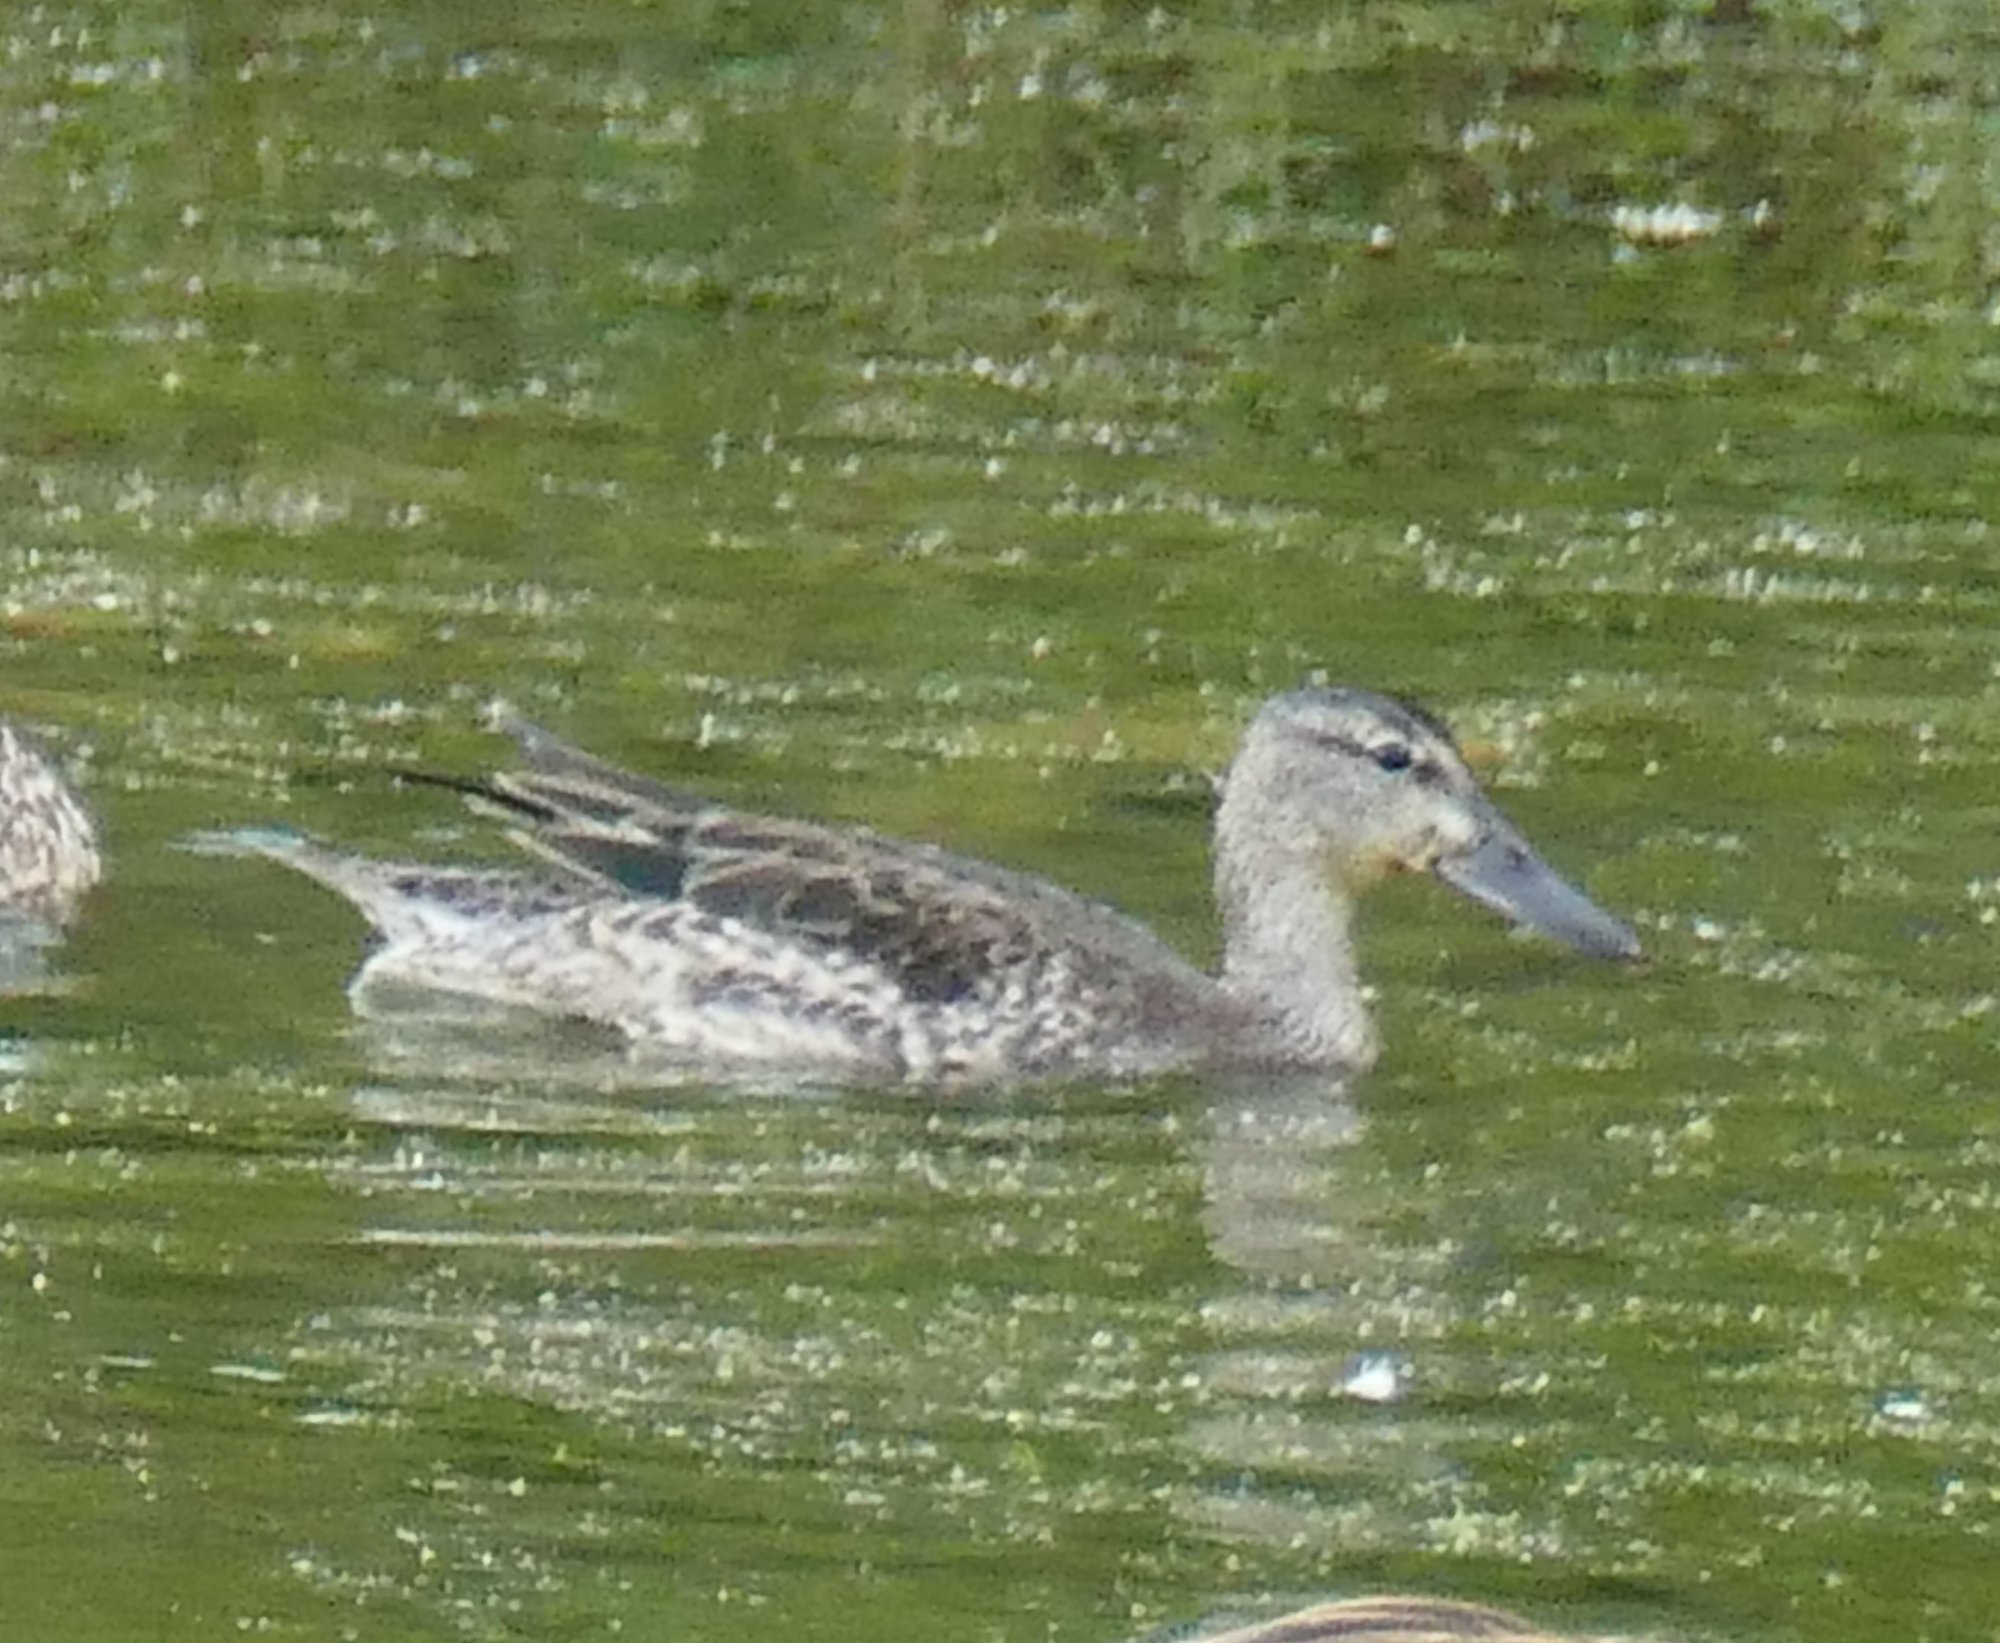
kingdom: Animalia
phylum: Chordata
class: Aves
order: Anseriformes
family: Anatidae
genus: Spatula
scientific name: Spatula discors
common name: Blue-winged teal
